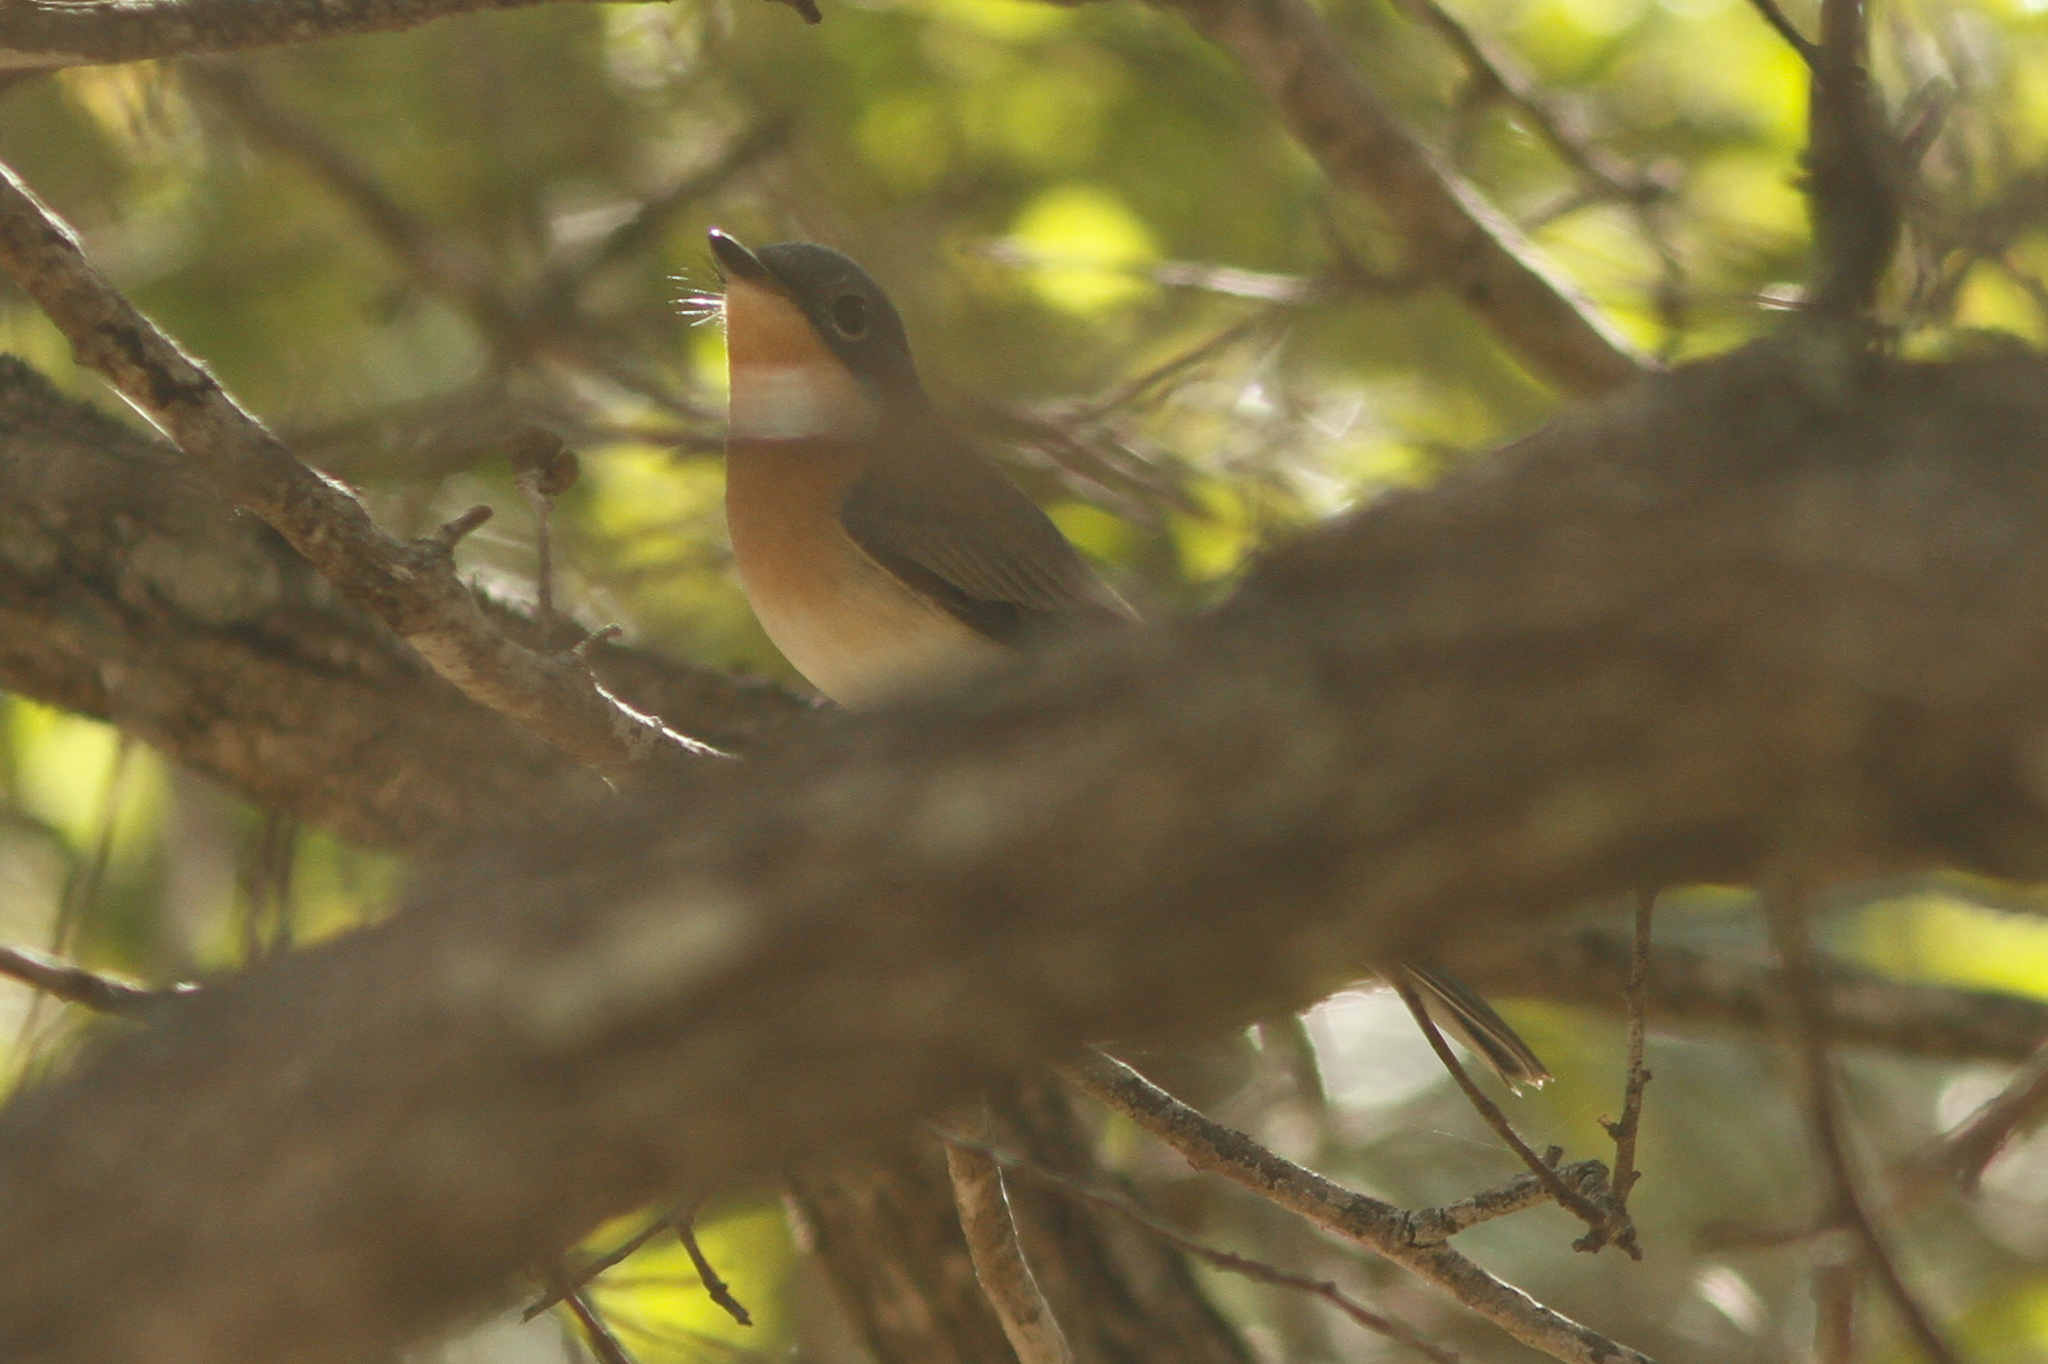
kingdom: Animalia
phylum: Chordata
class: Aves
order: Passeriformes
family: Monarchidae
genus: Myiagra
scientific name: Myiagra rubecula
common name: Leaden flycatcher
